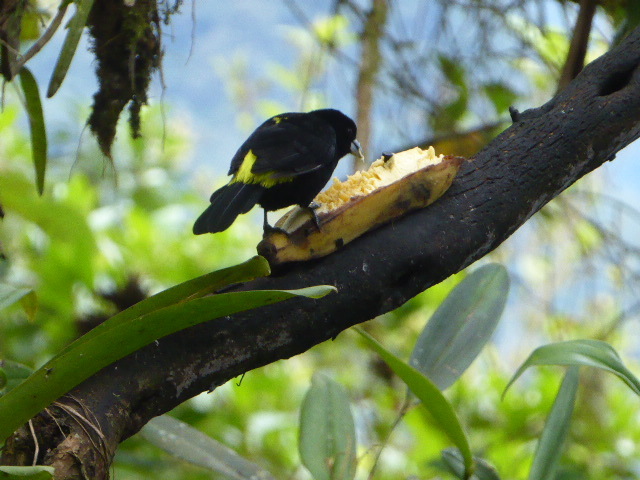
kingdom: Animalia
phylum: Chordata
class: Aves
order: Passeriformes
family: Thraupidae
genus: Ramphocelus
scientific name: Ramphocelus icteronotus
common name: Lemon-rumped tanager
